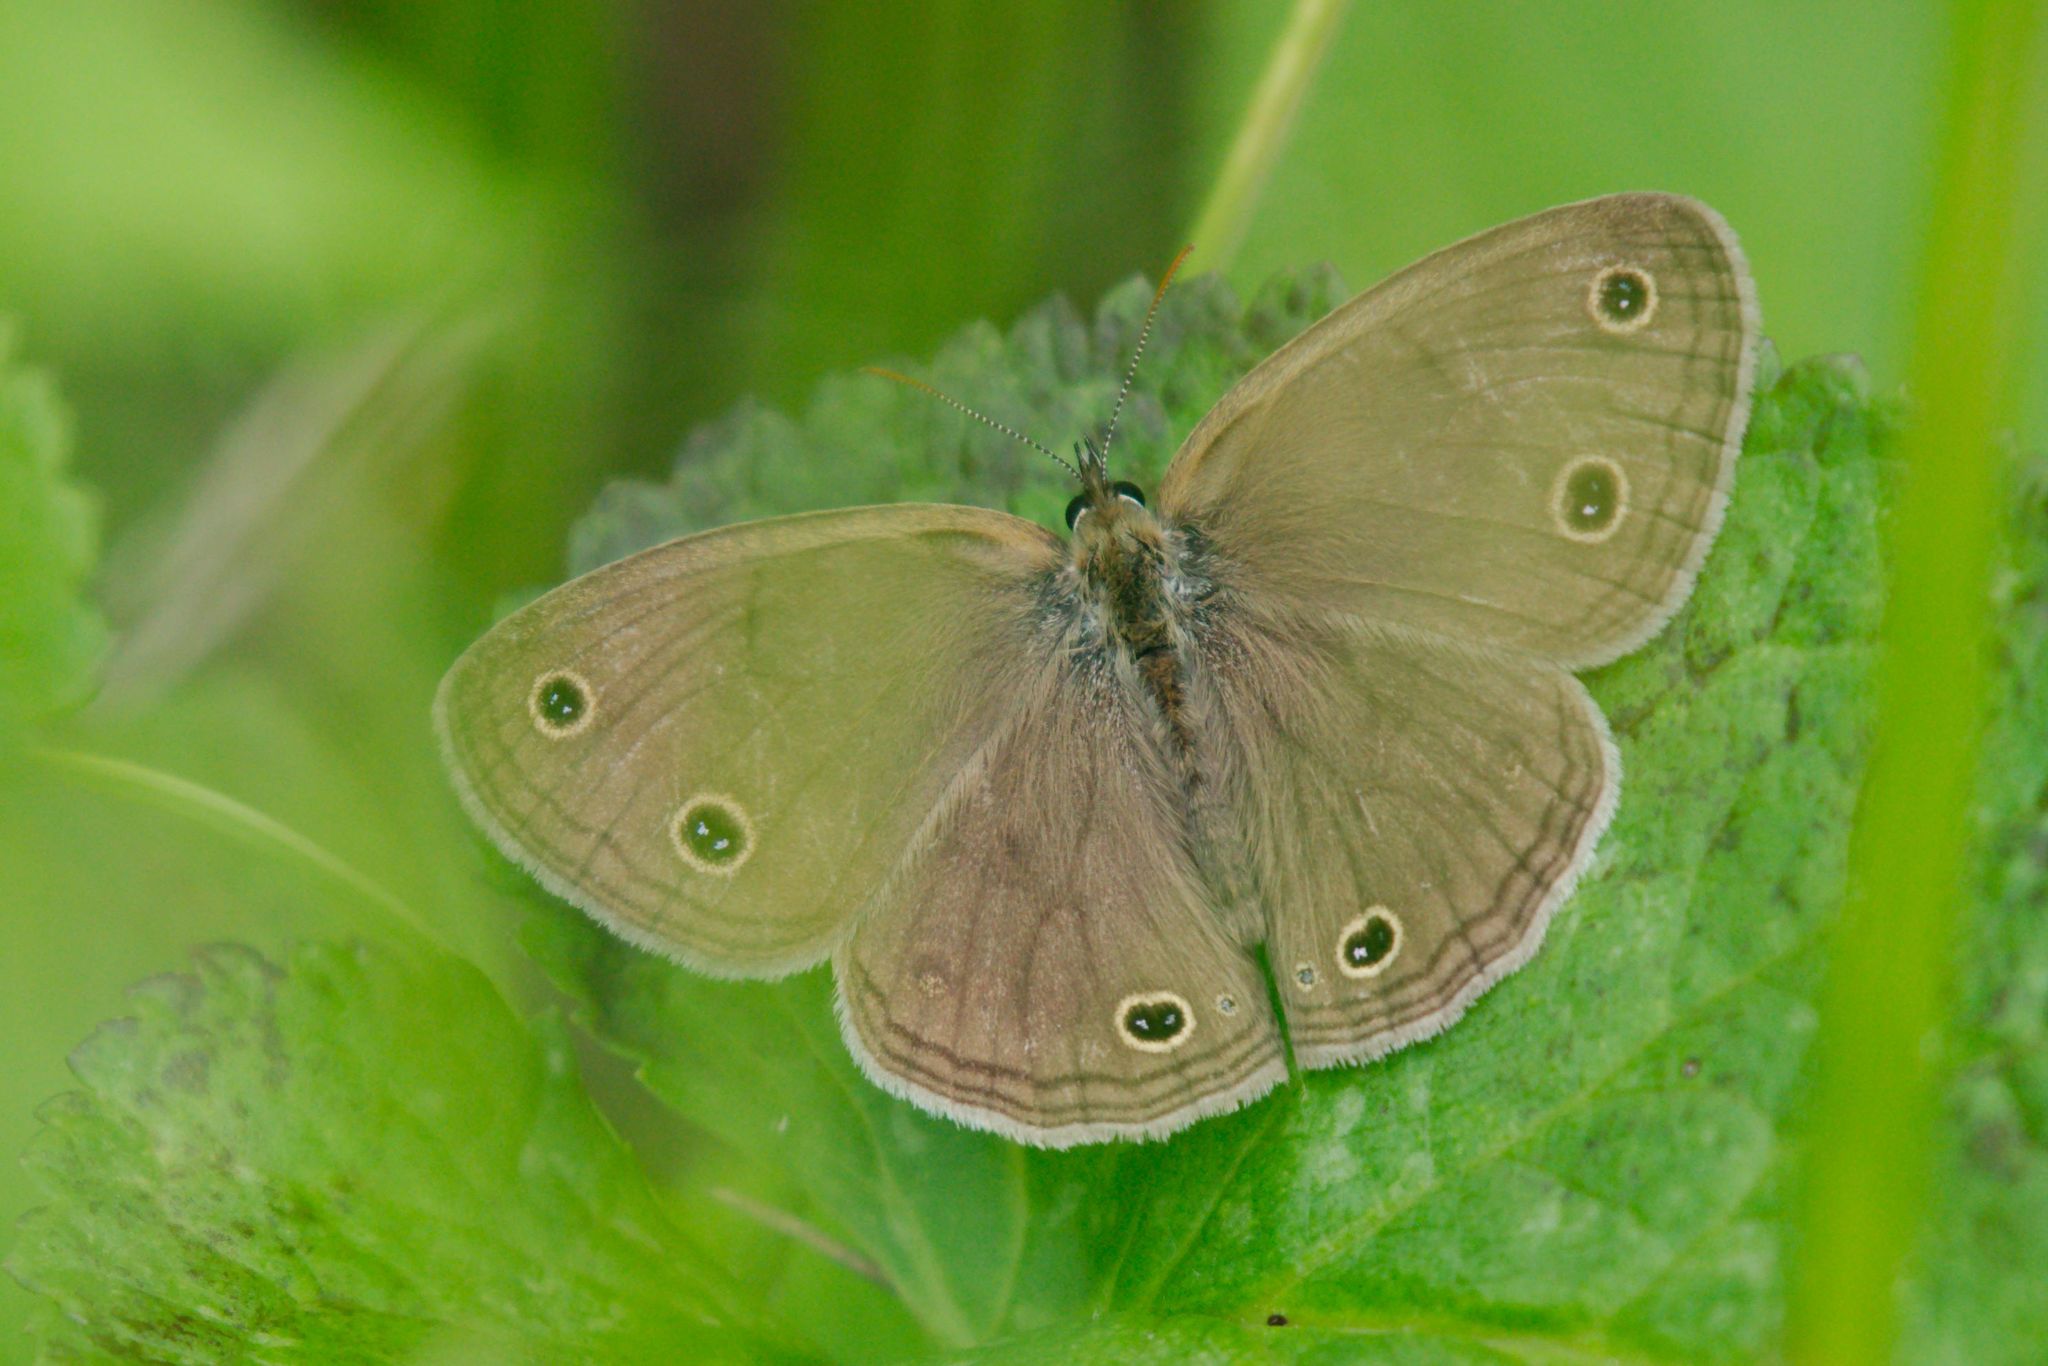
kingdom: Animalia
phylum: Arthropoda
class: Insecta
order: Lepidoptera
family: Nymphalidae
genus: Euptychia
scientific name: Euptychia cymela
